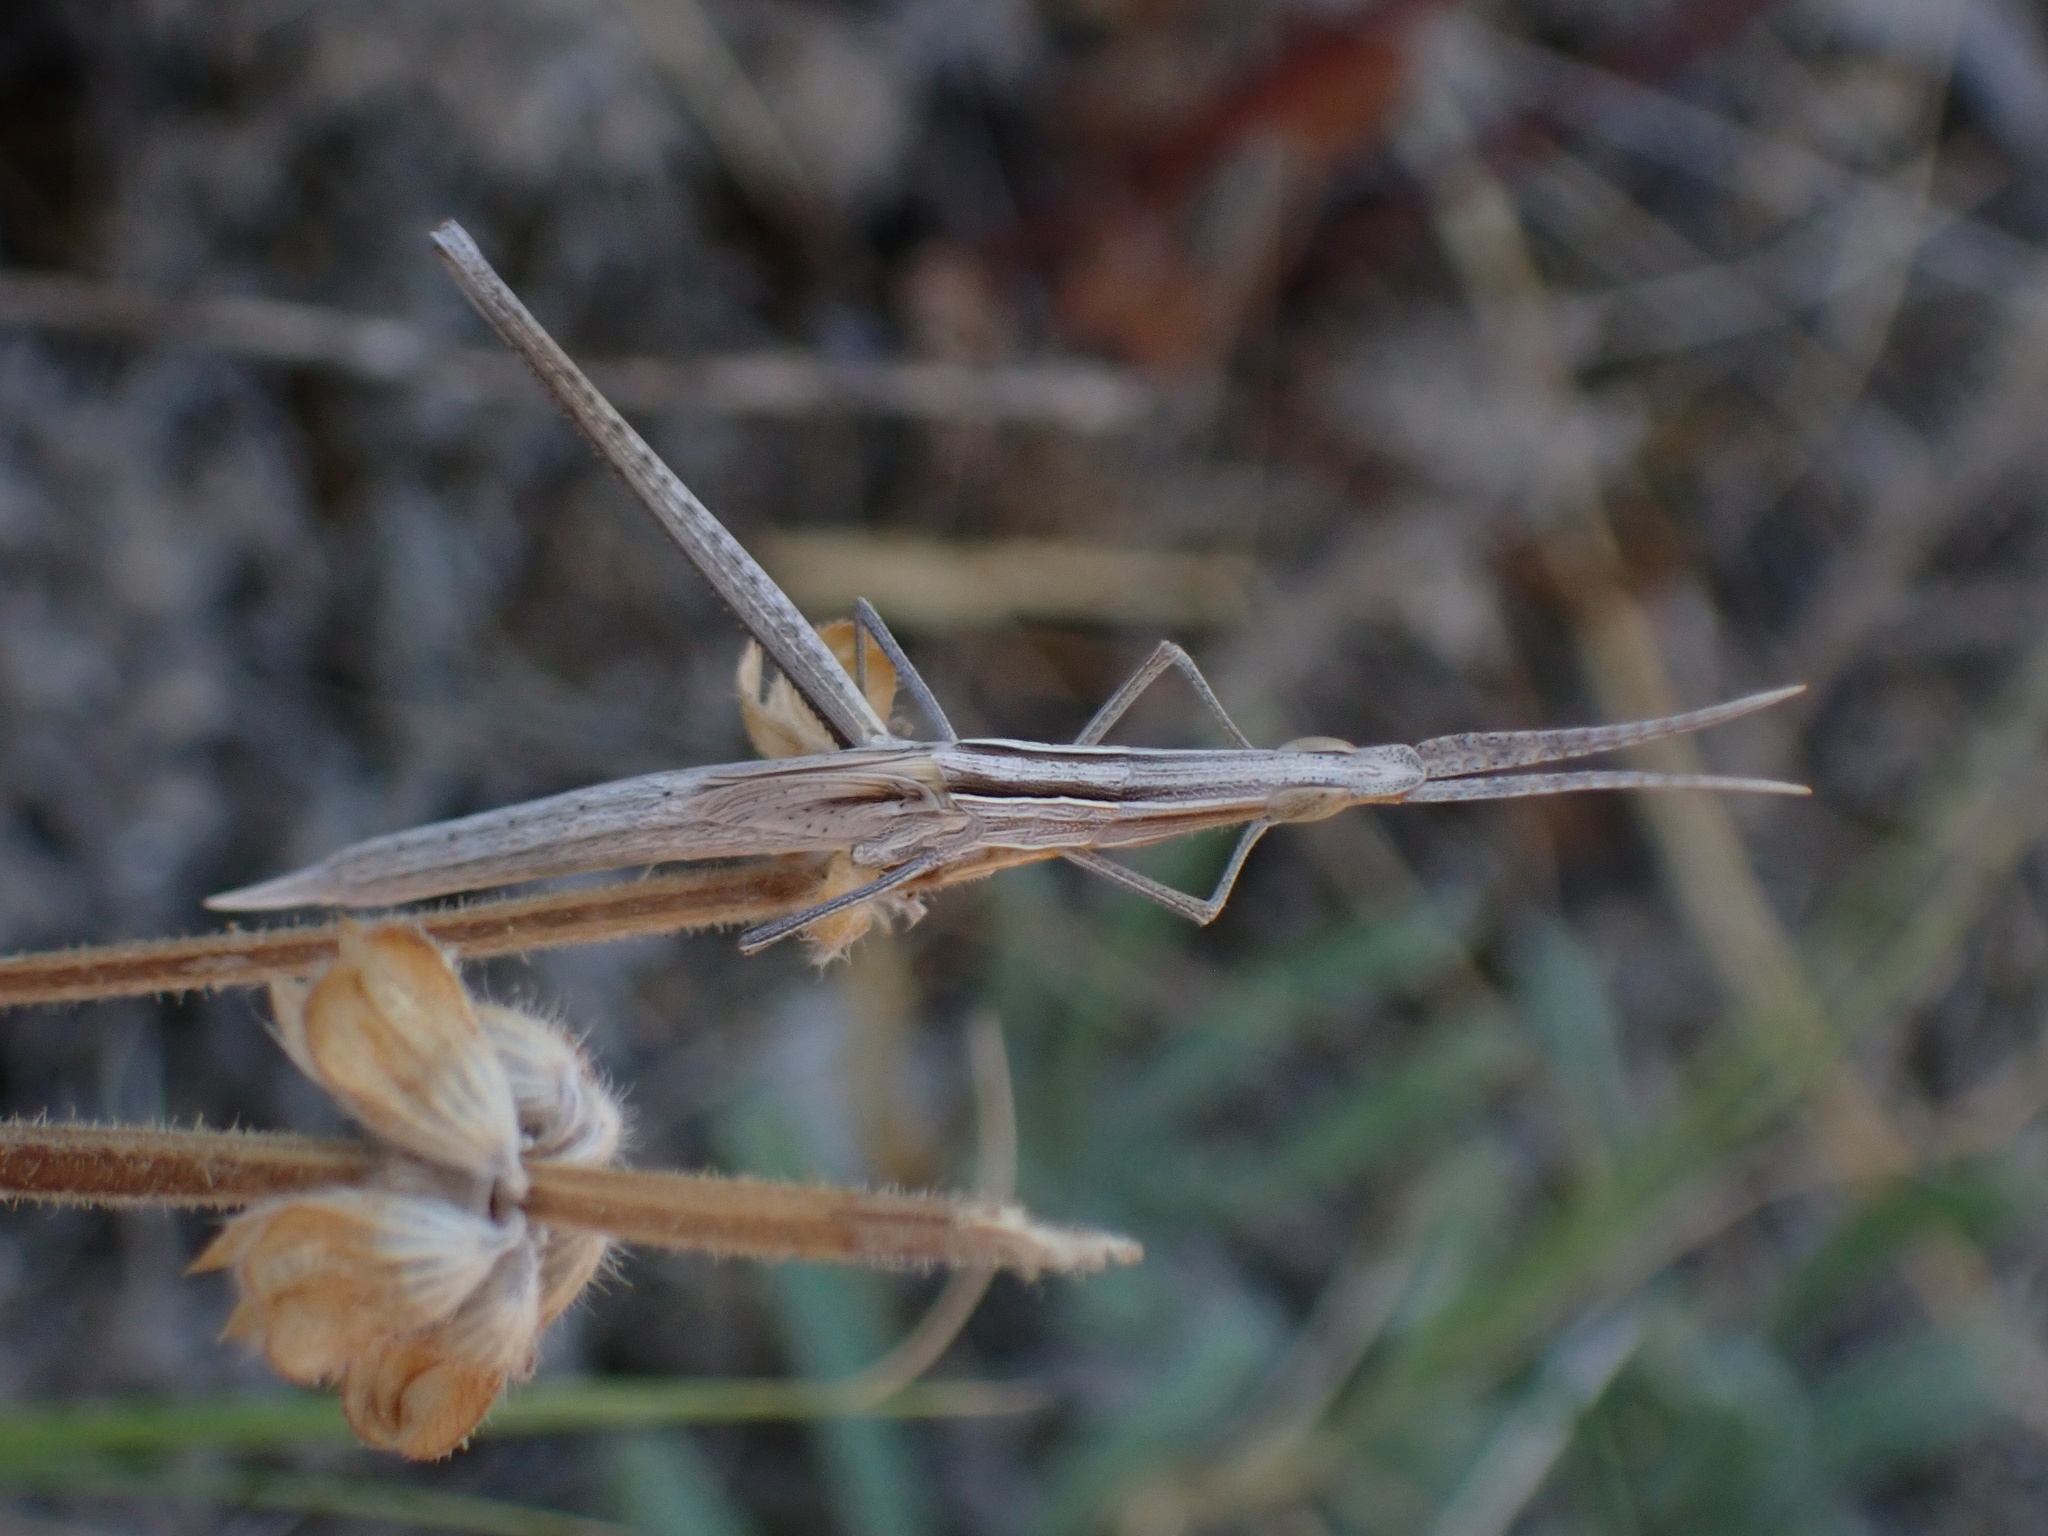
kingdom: Animalia
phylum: Arthropoda
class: Insecta
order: Orthoptera
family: Acrididae
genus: Acrida
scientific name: Acrida ungarica
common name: Common cone-headed grasshopper
